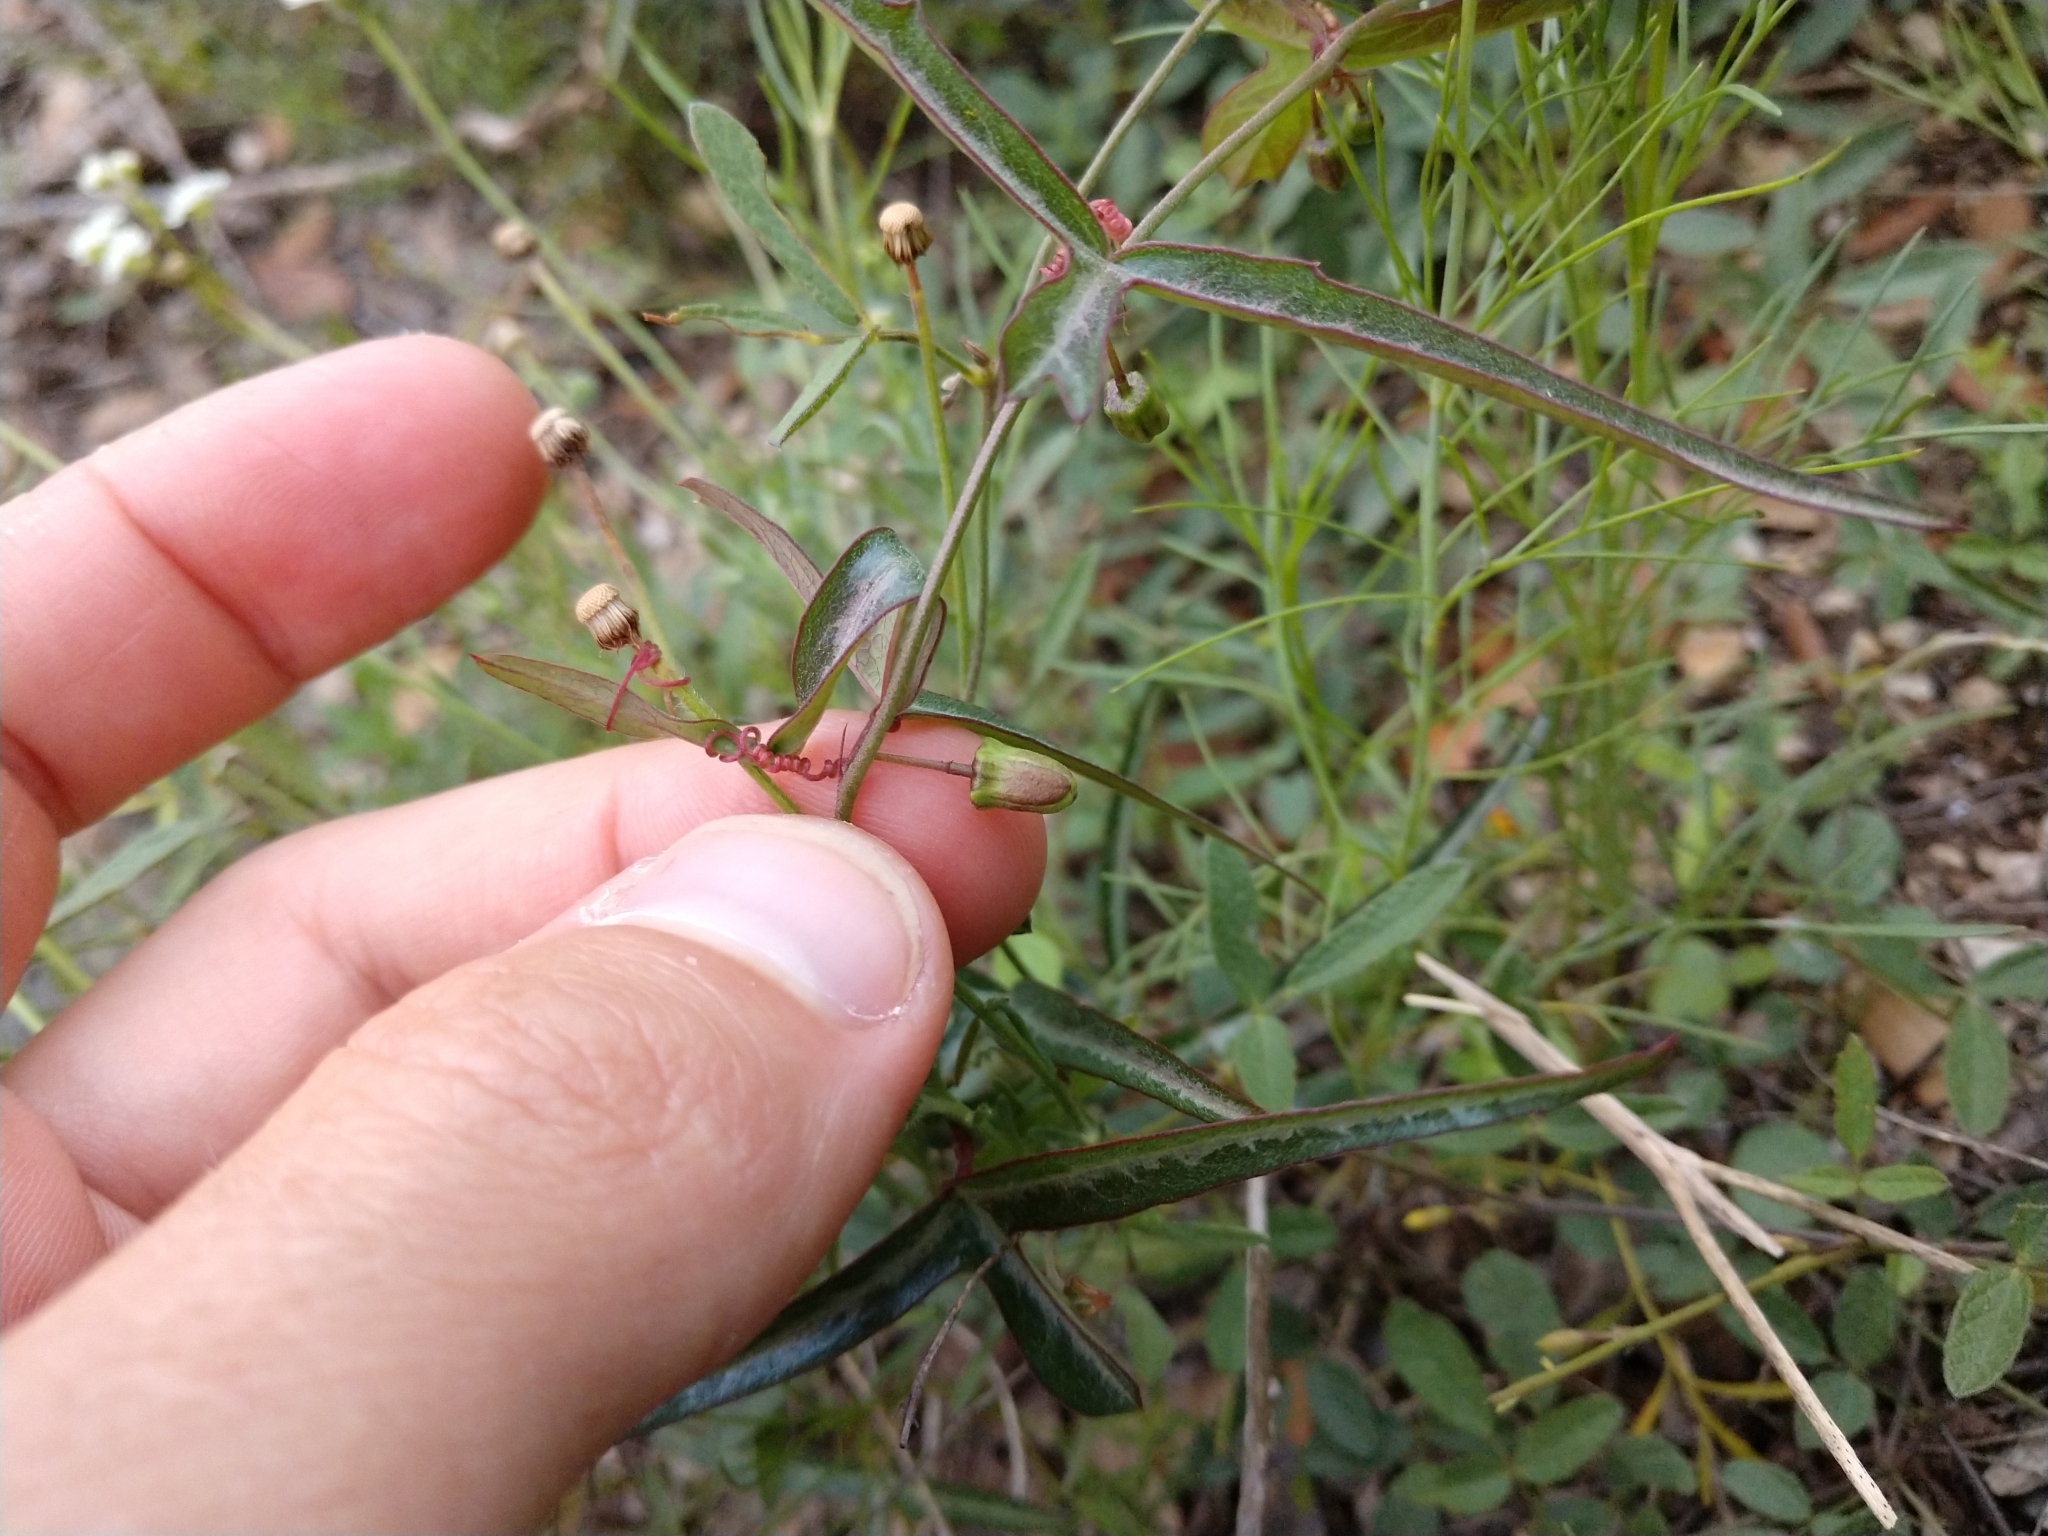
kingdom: Plantae
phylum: Tracheophyta
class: Magnoliopsida
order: Malpighiales
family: Passifloraceae
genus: Passiflora
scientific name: Passiflora tenuiloba
